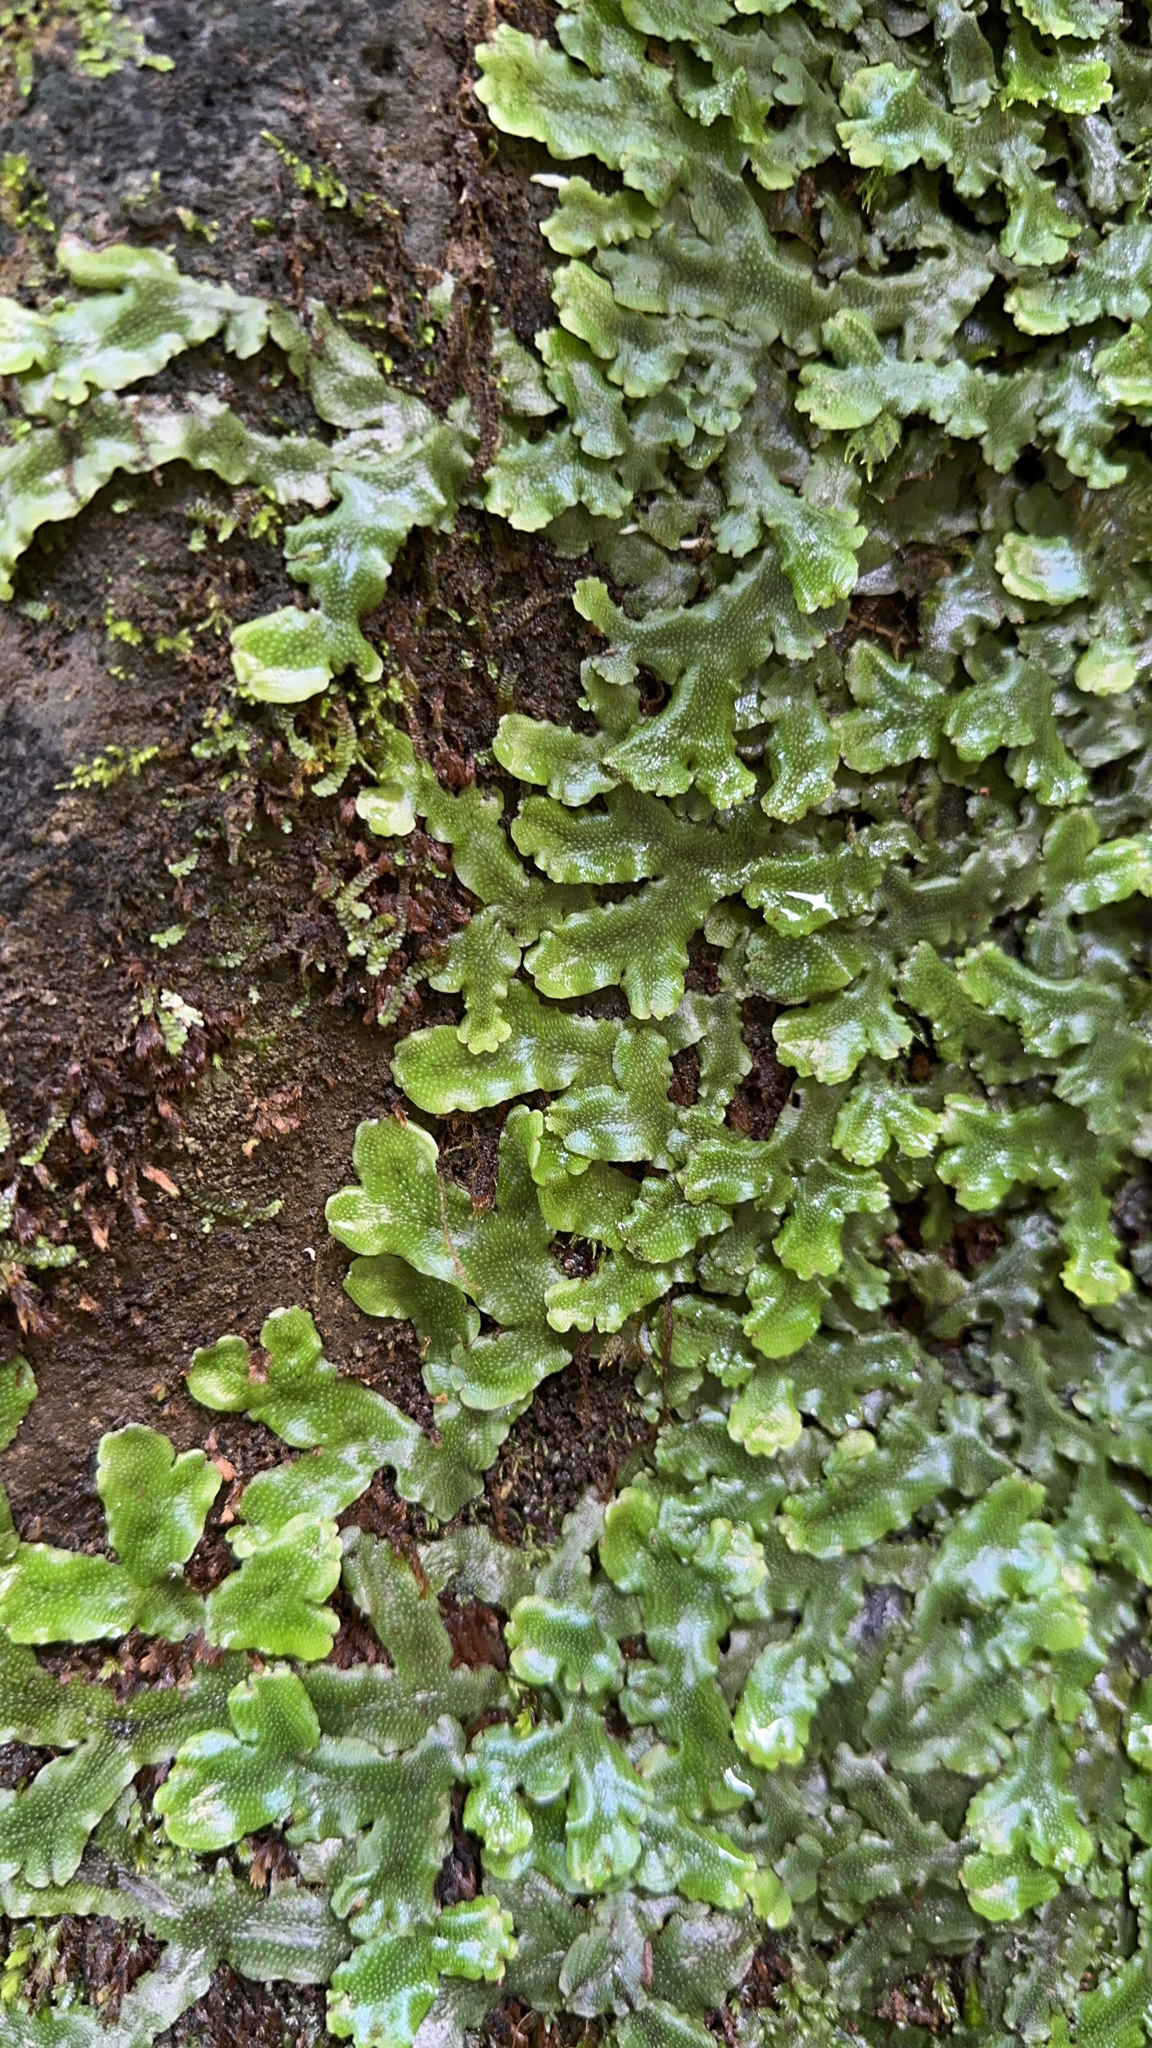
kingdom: Plantae
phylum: Marchantiophyta
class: Marchantiopsida
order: Marchantiales
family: Conocephalaceae
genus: Conocephalum
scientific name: Conocephalum conicum
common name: Great scented liverwort
